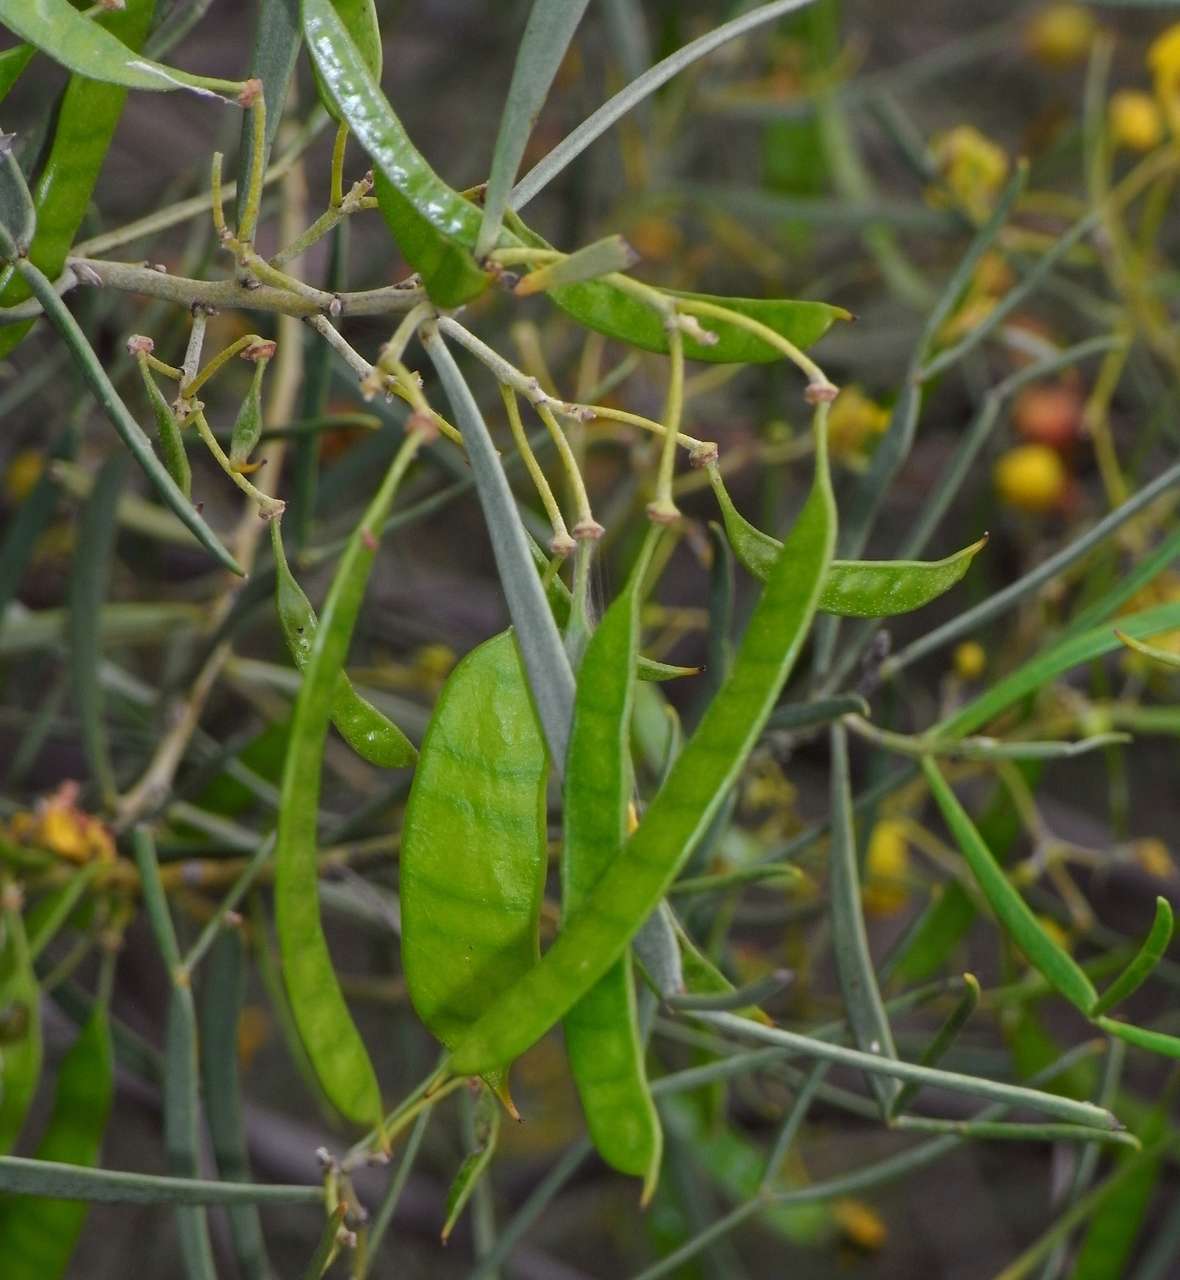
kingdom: Plantae
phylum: Tracheophyta
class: Magnoliopsida
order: Fabales
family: Fabaceae
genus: Senna
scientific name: Senna artemisioides
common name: Burnt-leaved acacia
